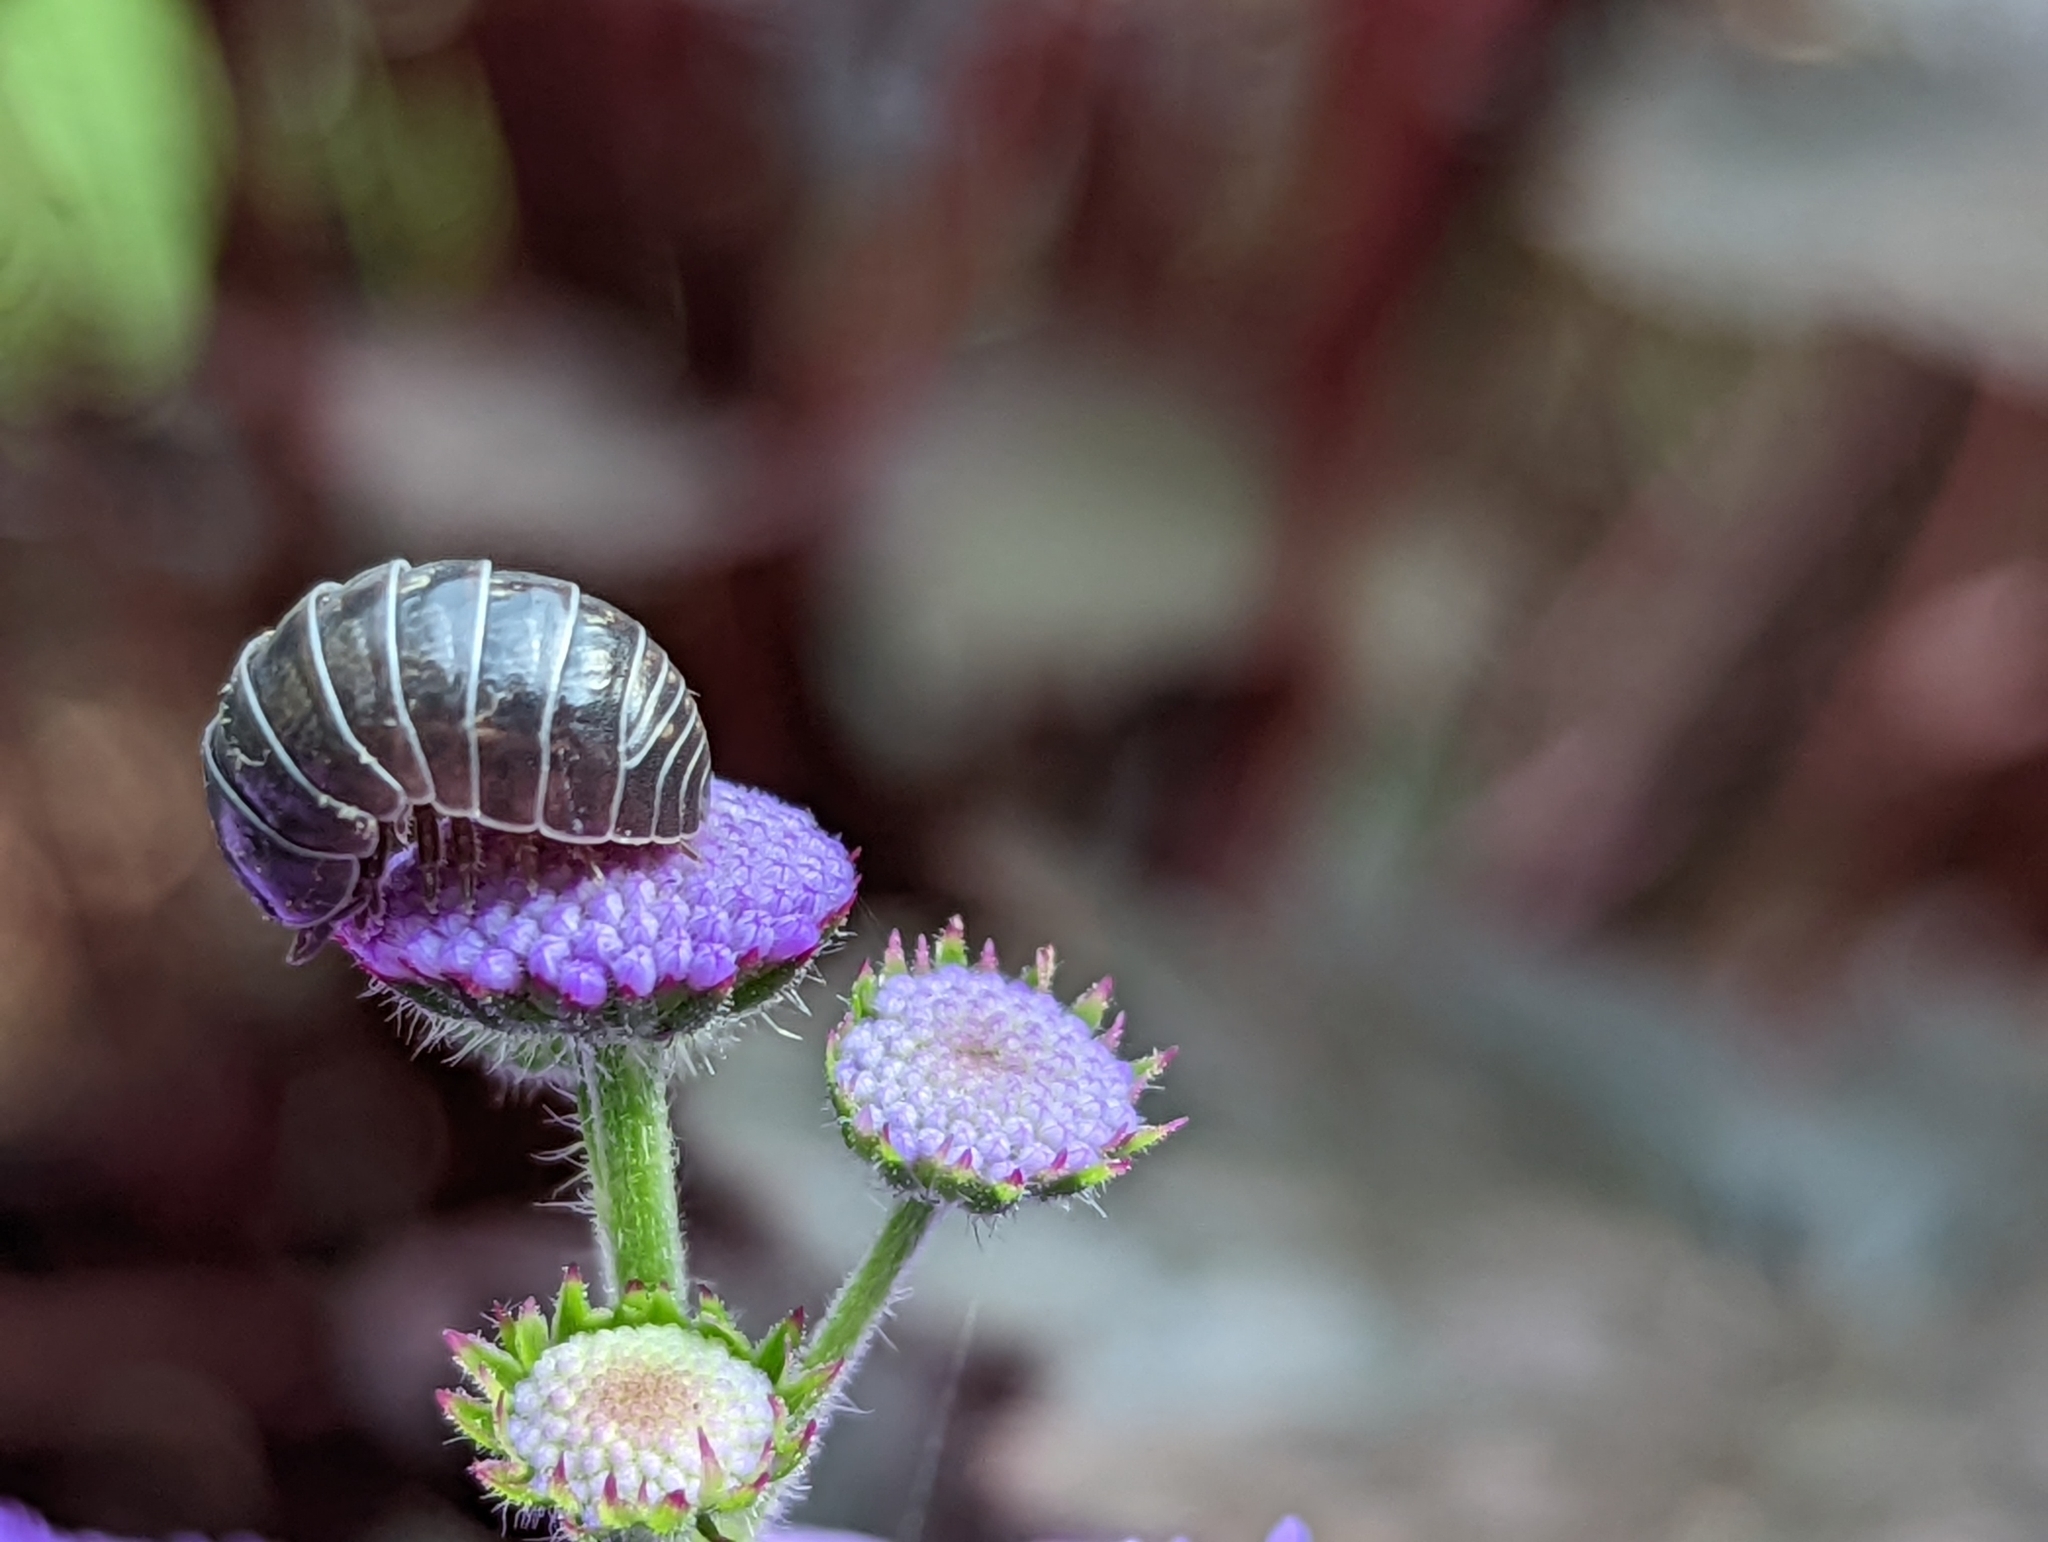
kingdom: Animalia
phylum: Arthropoda
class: Malacostraca
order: Isopoda
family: Armadillidiidae
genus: Armadillidium
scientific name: Armadillidium vulgare
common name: Common pill woodlouse
